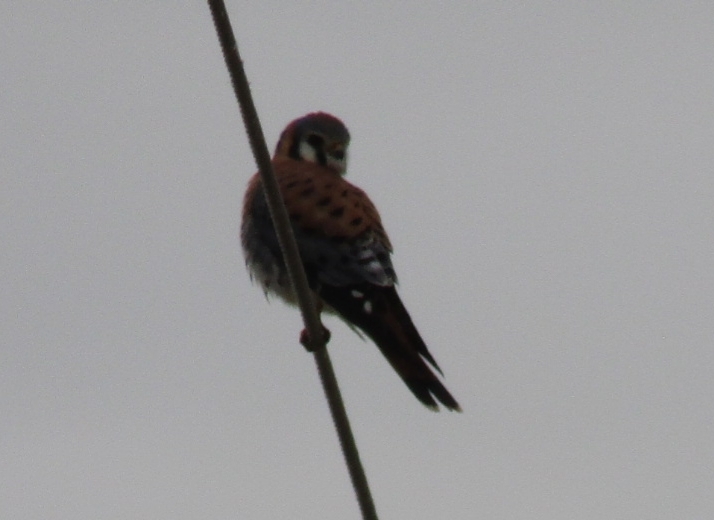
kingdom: Animalia
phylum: Chordata
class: Aves
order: Falconiformes
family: Falconidae
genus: Falco
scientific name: Falco sparverius
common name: American kestrel
